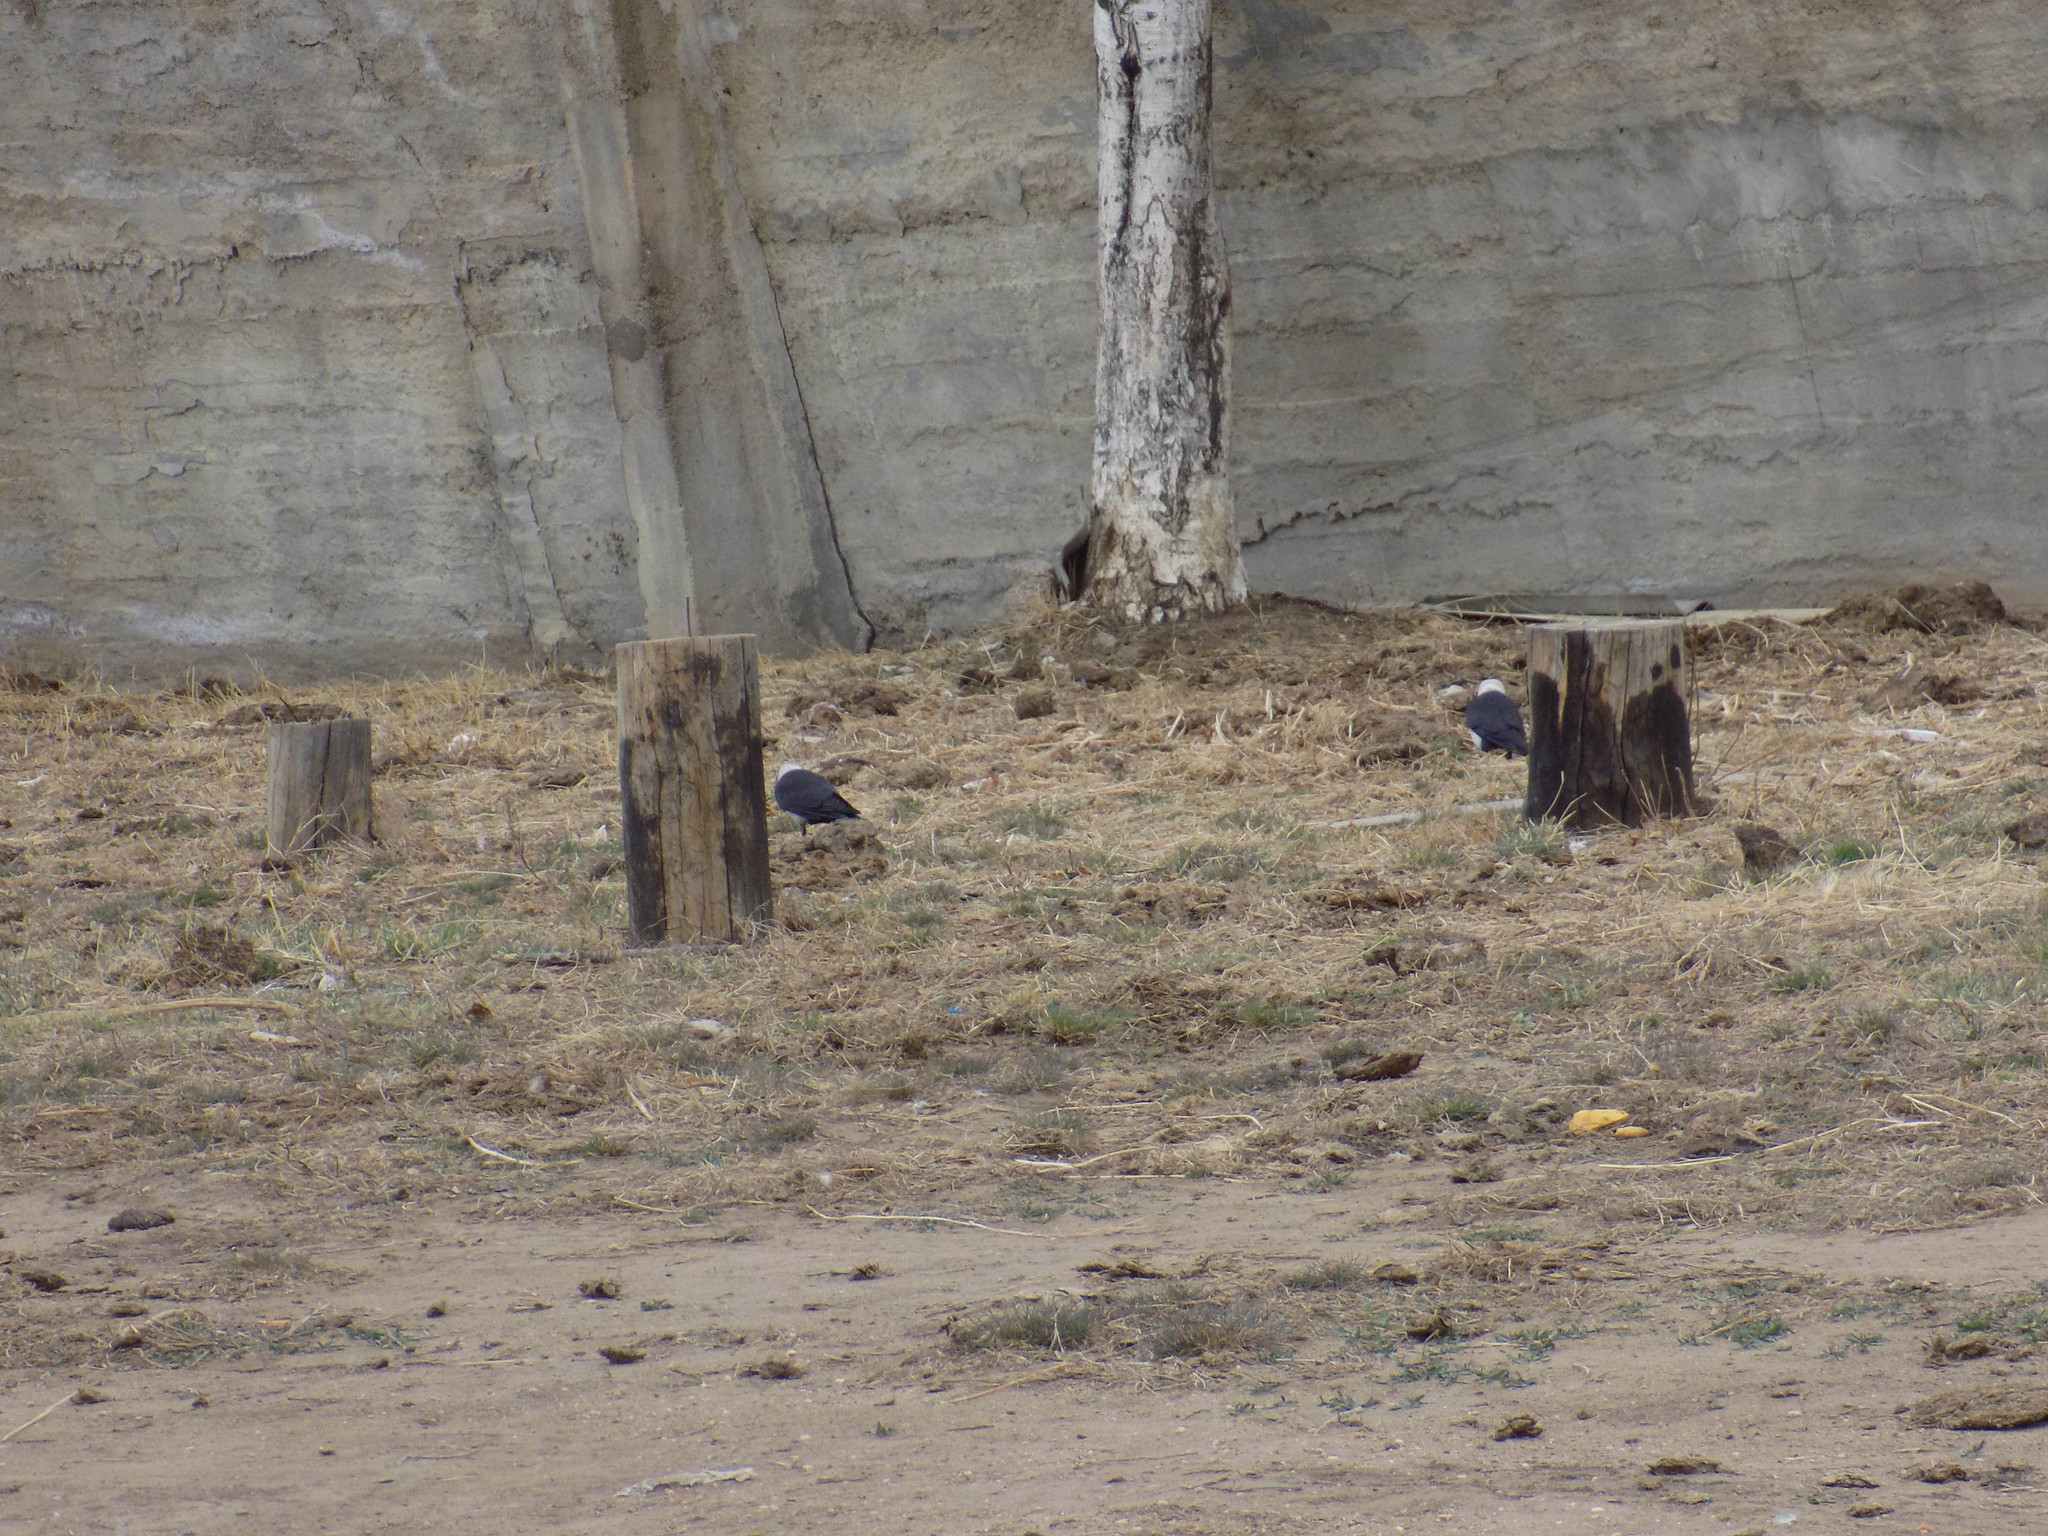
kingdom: Animalia
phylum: Chordata
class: Aves
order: Passeriformes
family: Corvidae
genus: Coloeus
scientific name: Coloeus dauuricus
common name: Daurian jackdaw
